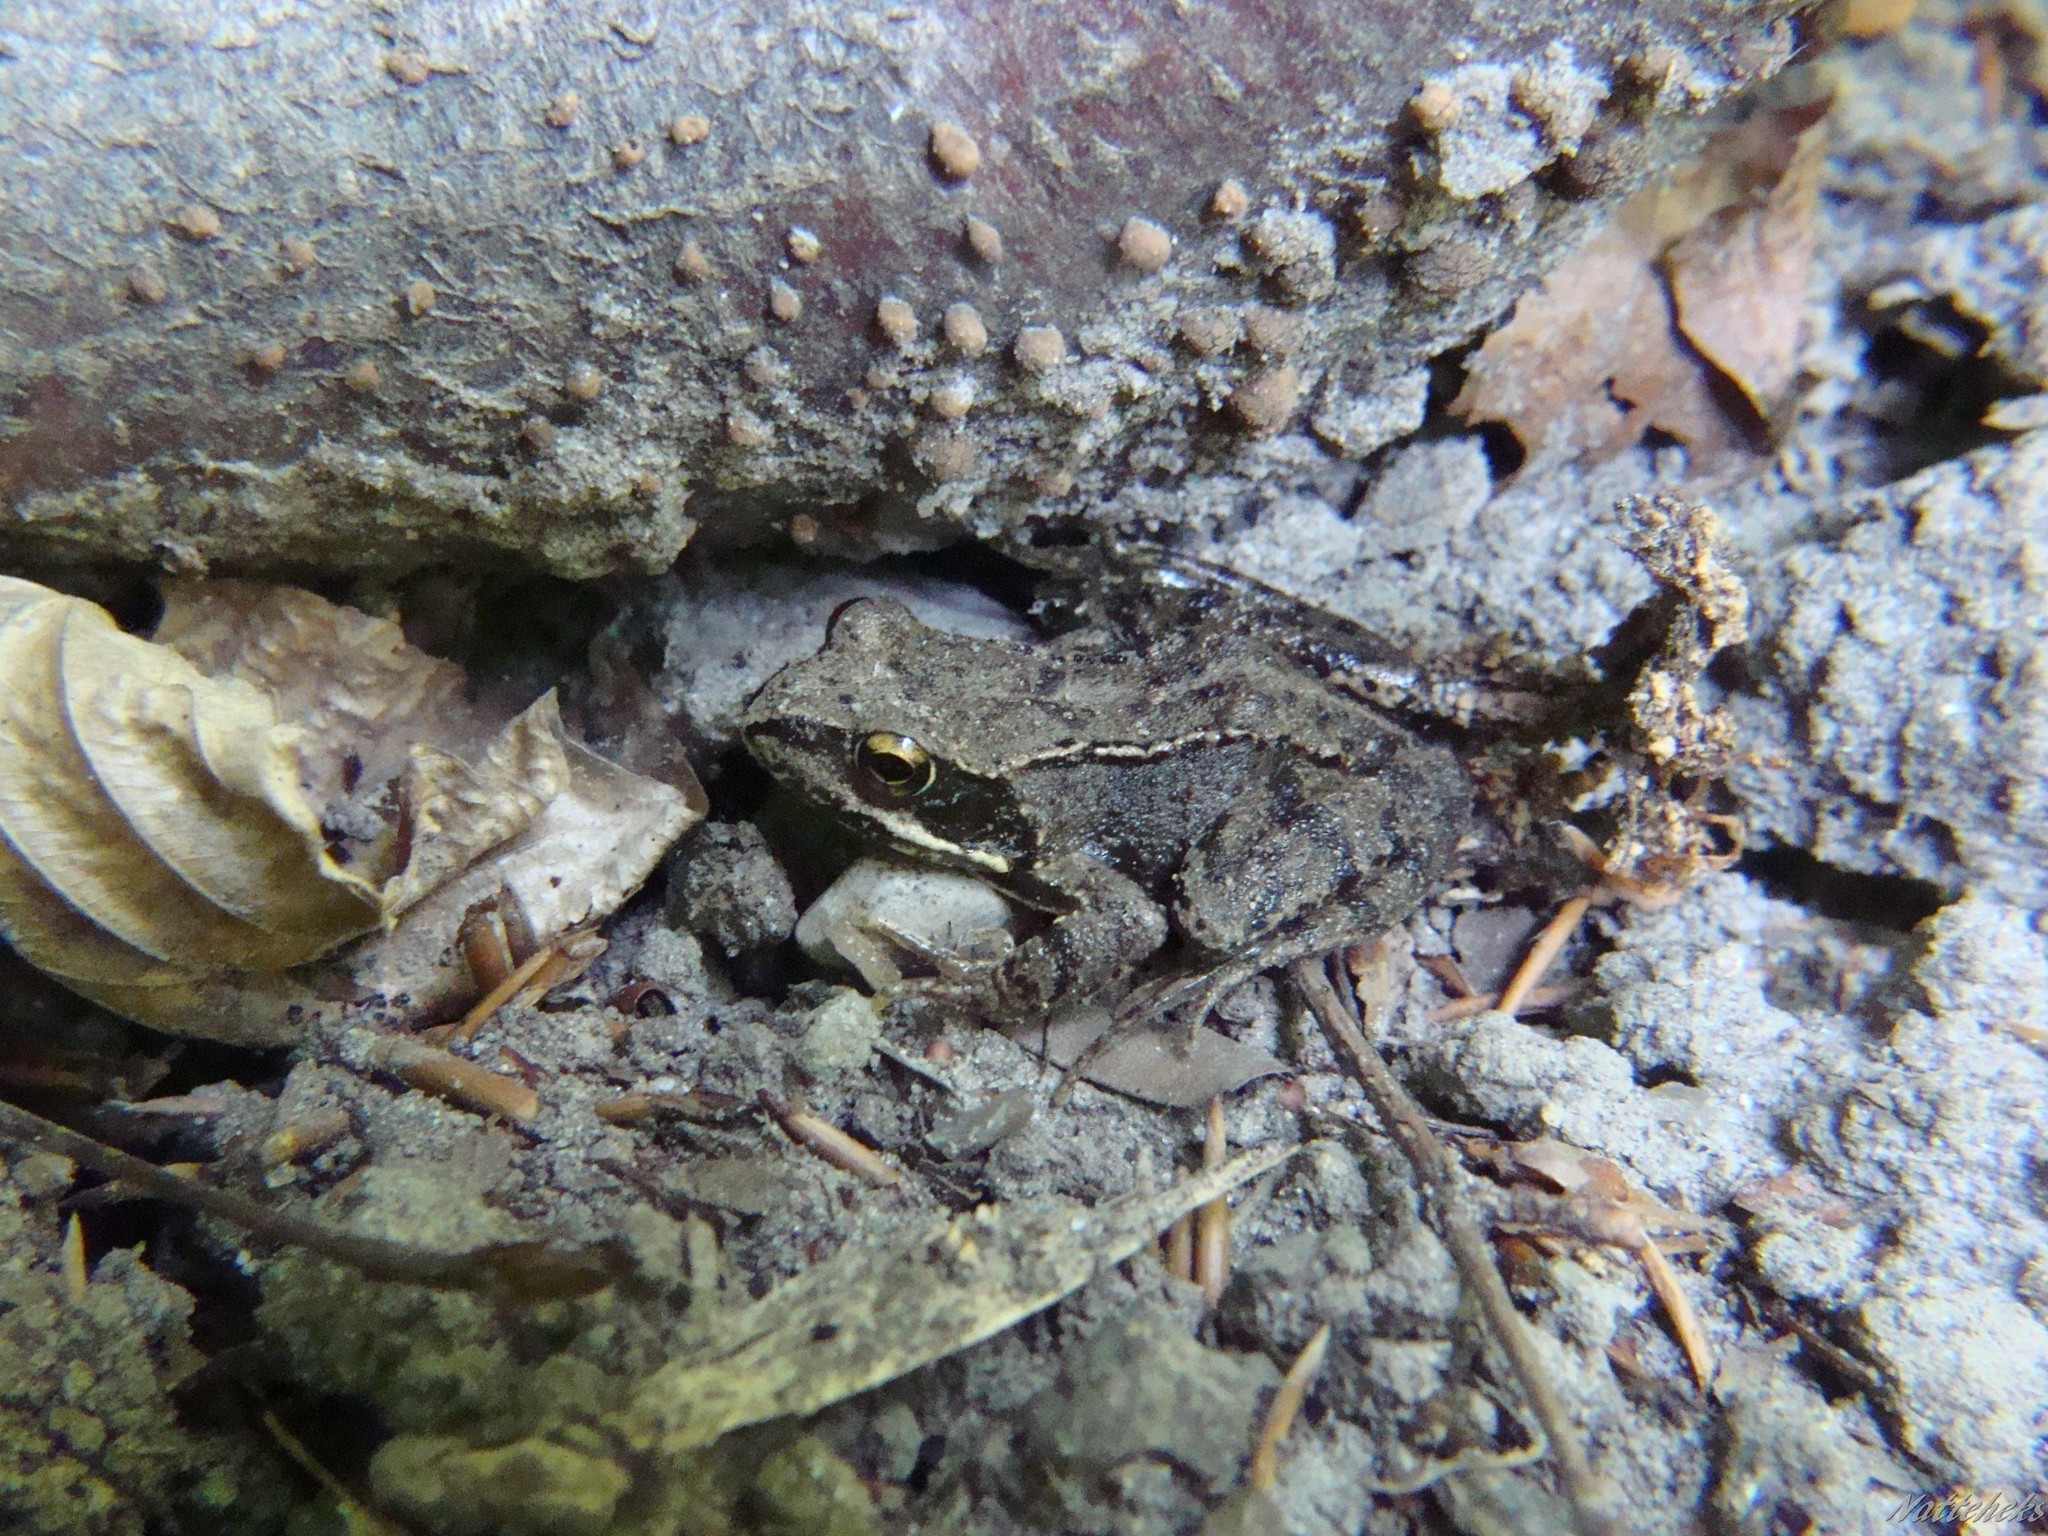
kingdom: Animalia
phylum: Chordata
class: Amphibia
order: Anura
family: Ranidae
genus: Rana
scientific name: Rana temporaria
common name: Common frog
